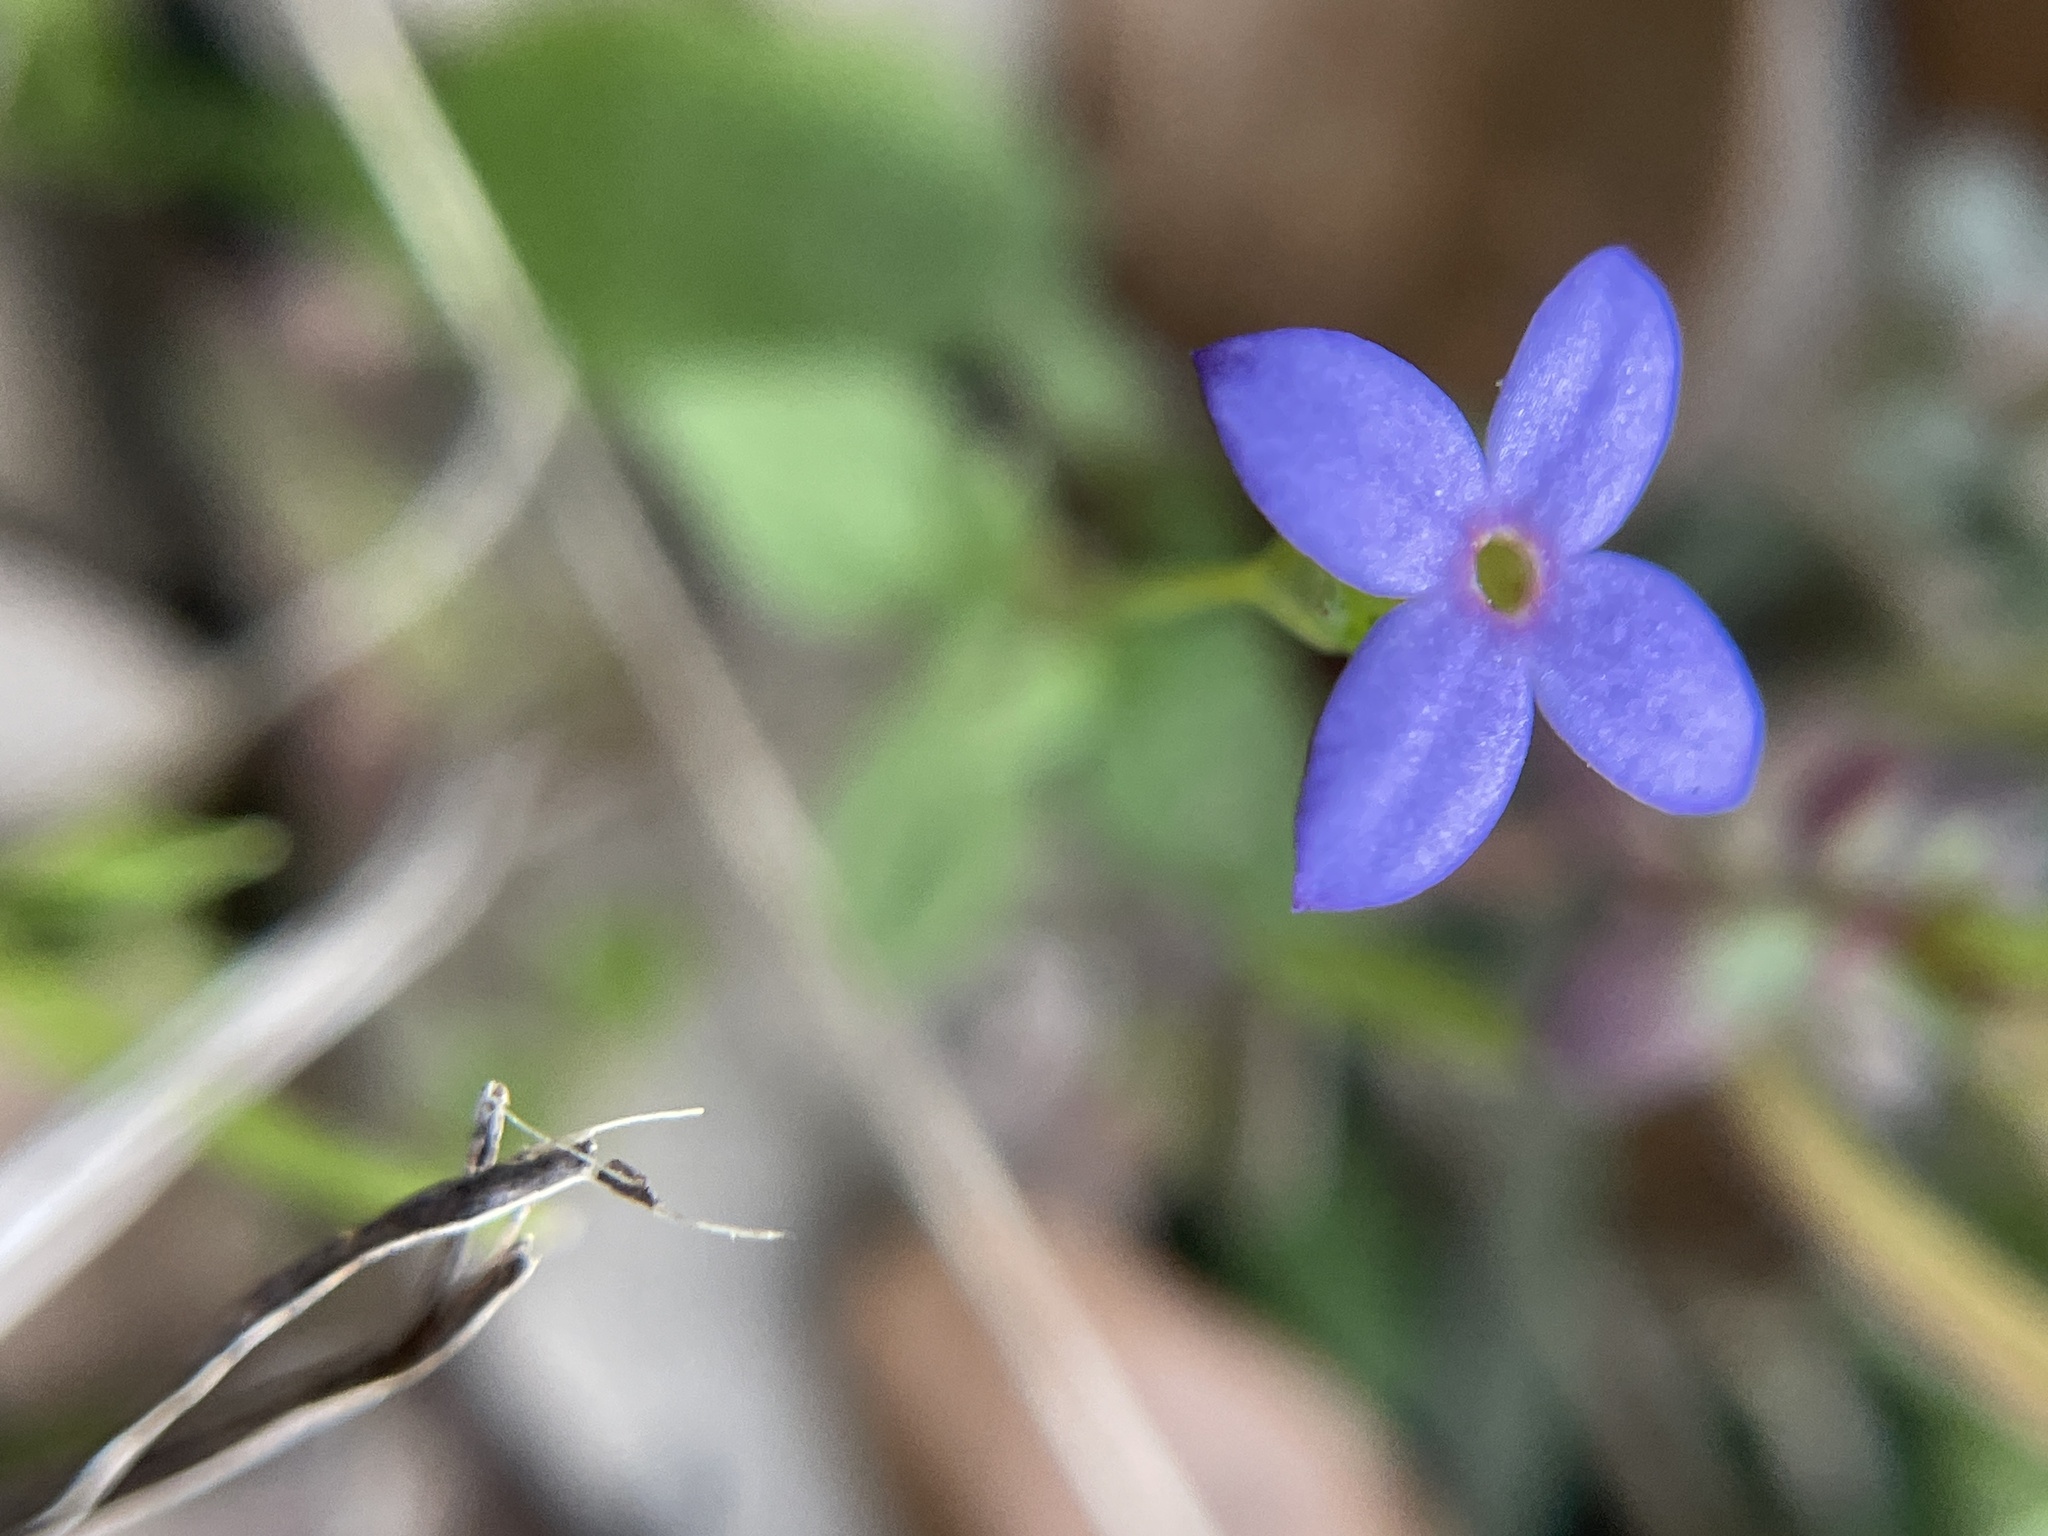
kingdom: Plantae
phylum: Tracheophyta
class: Magnoliopsida
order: Gentianales
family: Rubiaceae
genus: Houstonia
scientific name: Houstonia pusilla
